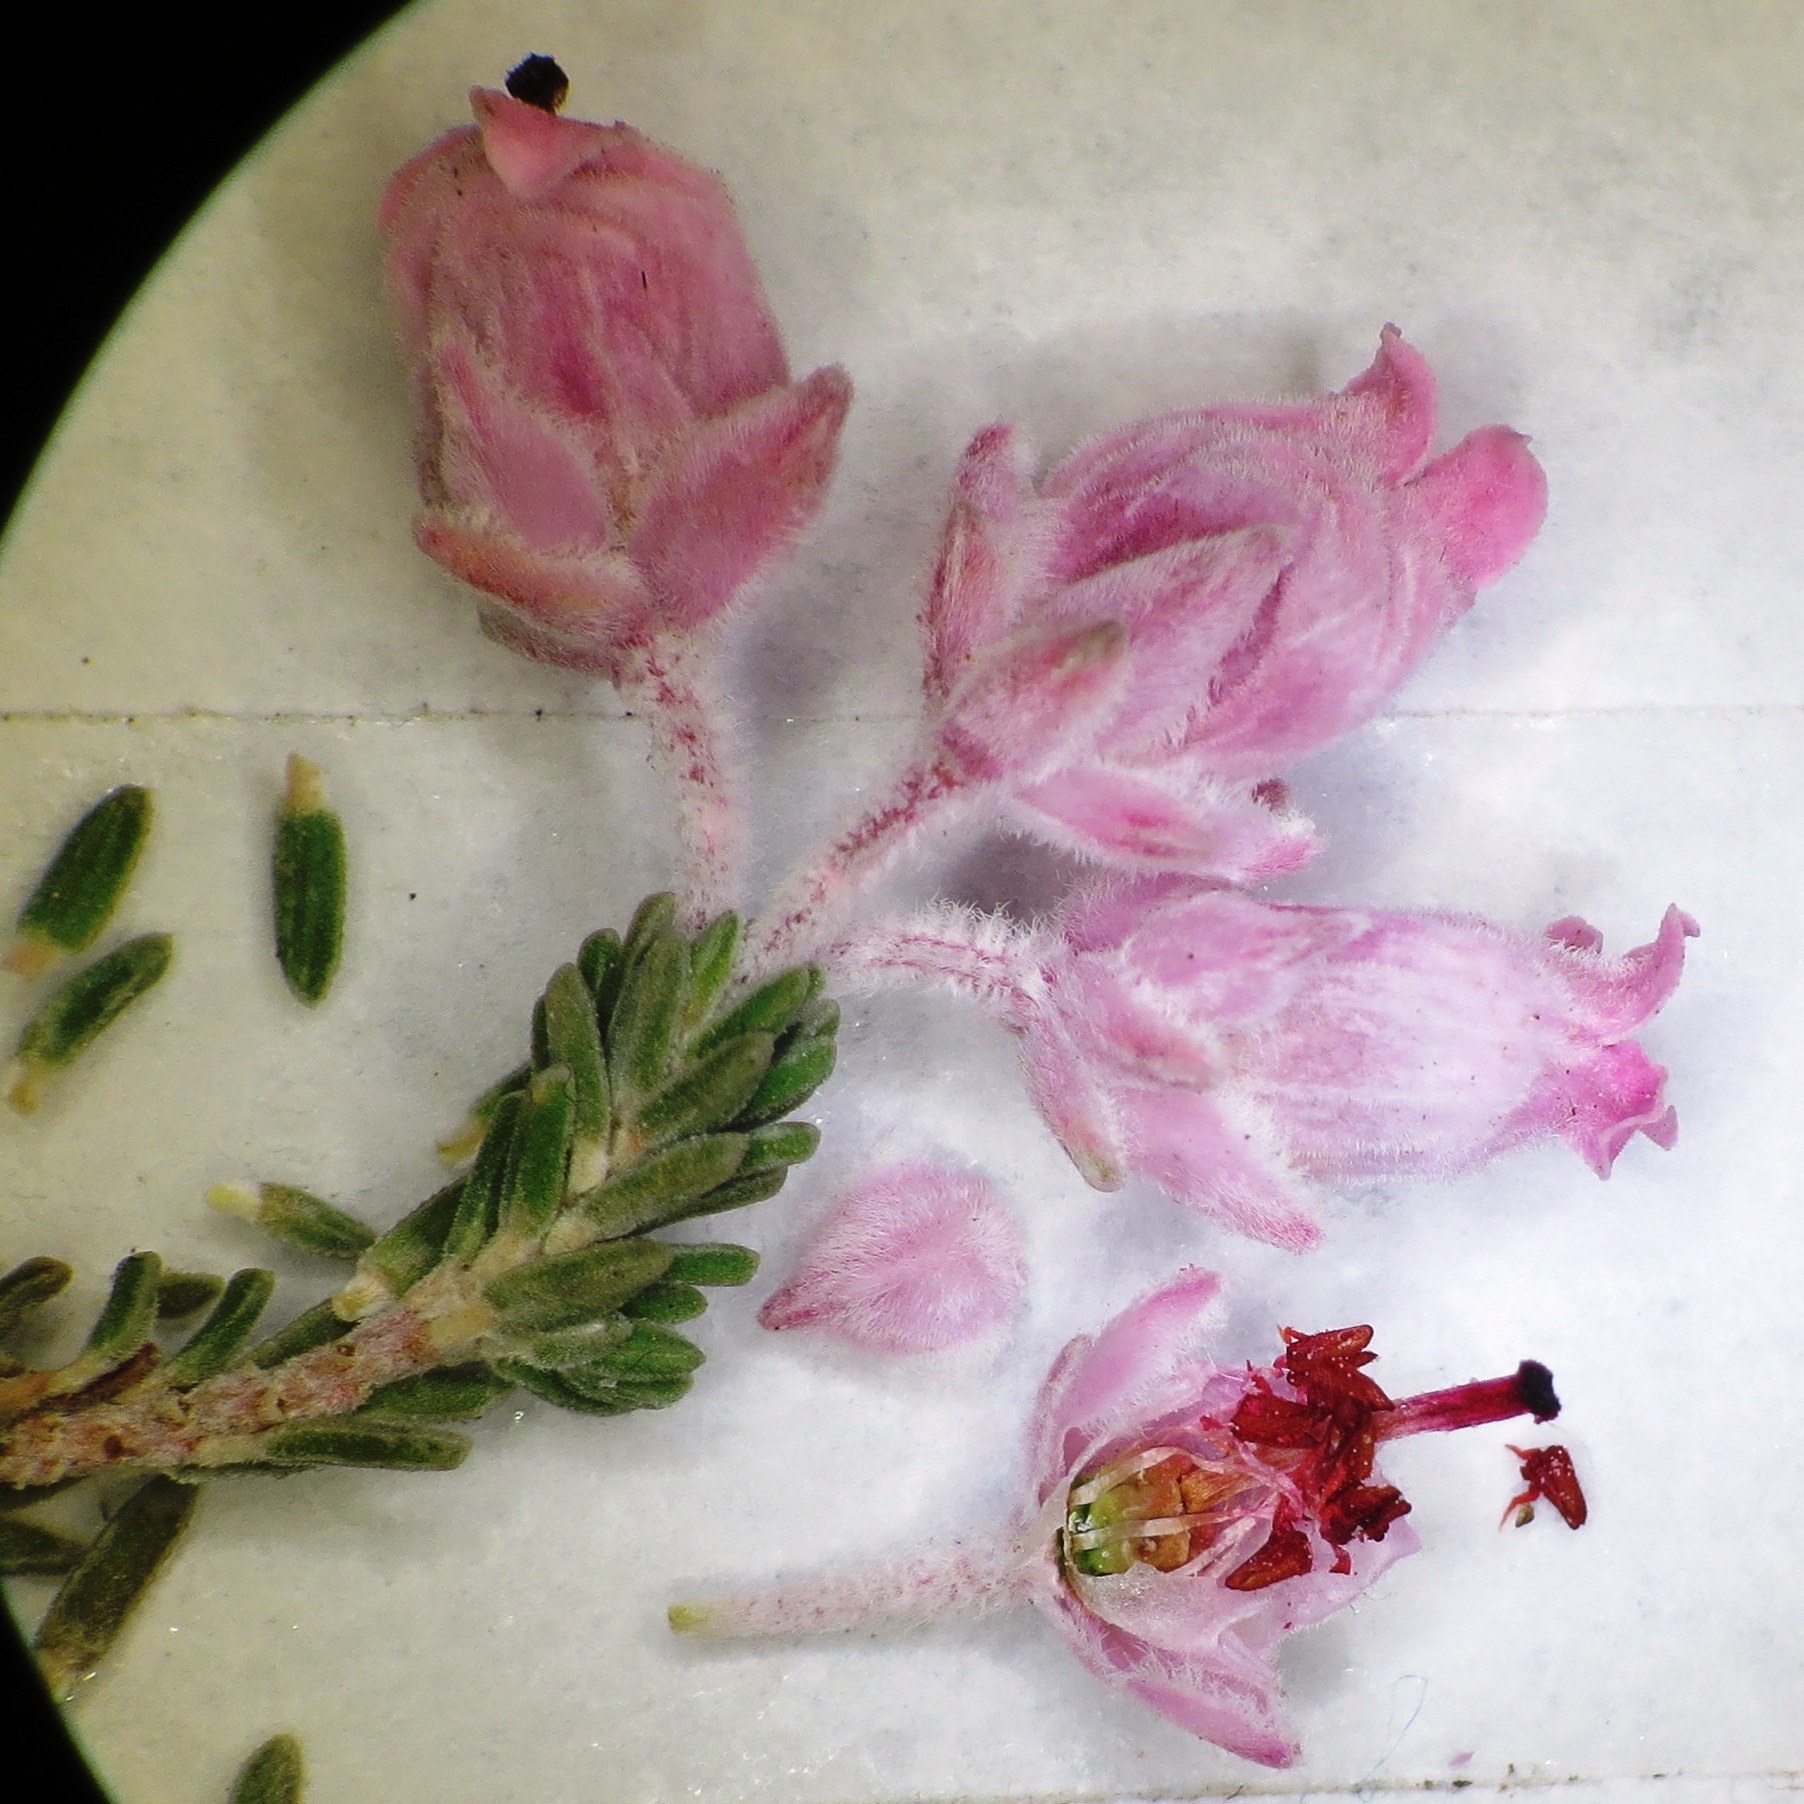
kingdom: Plantae
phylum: Tracheophyta
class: Magnoliopsida
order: Ericales
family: Ericaceae
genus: Erica
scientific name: Erica modesta
